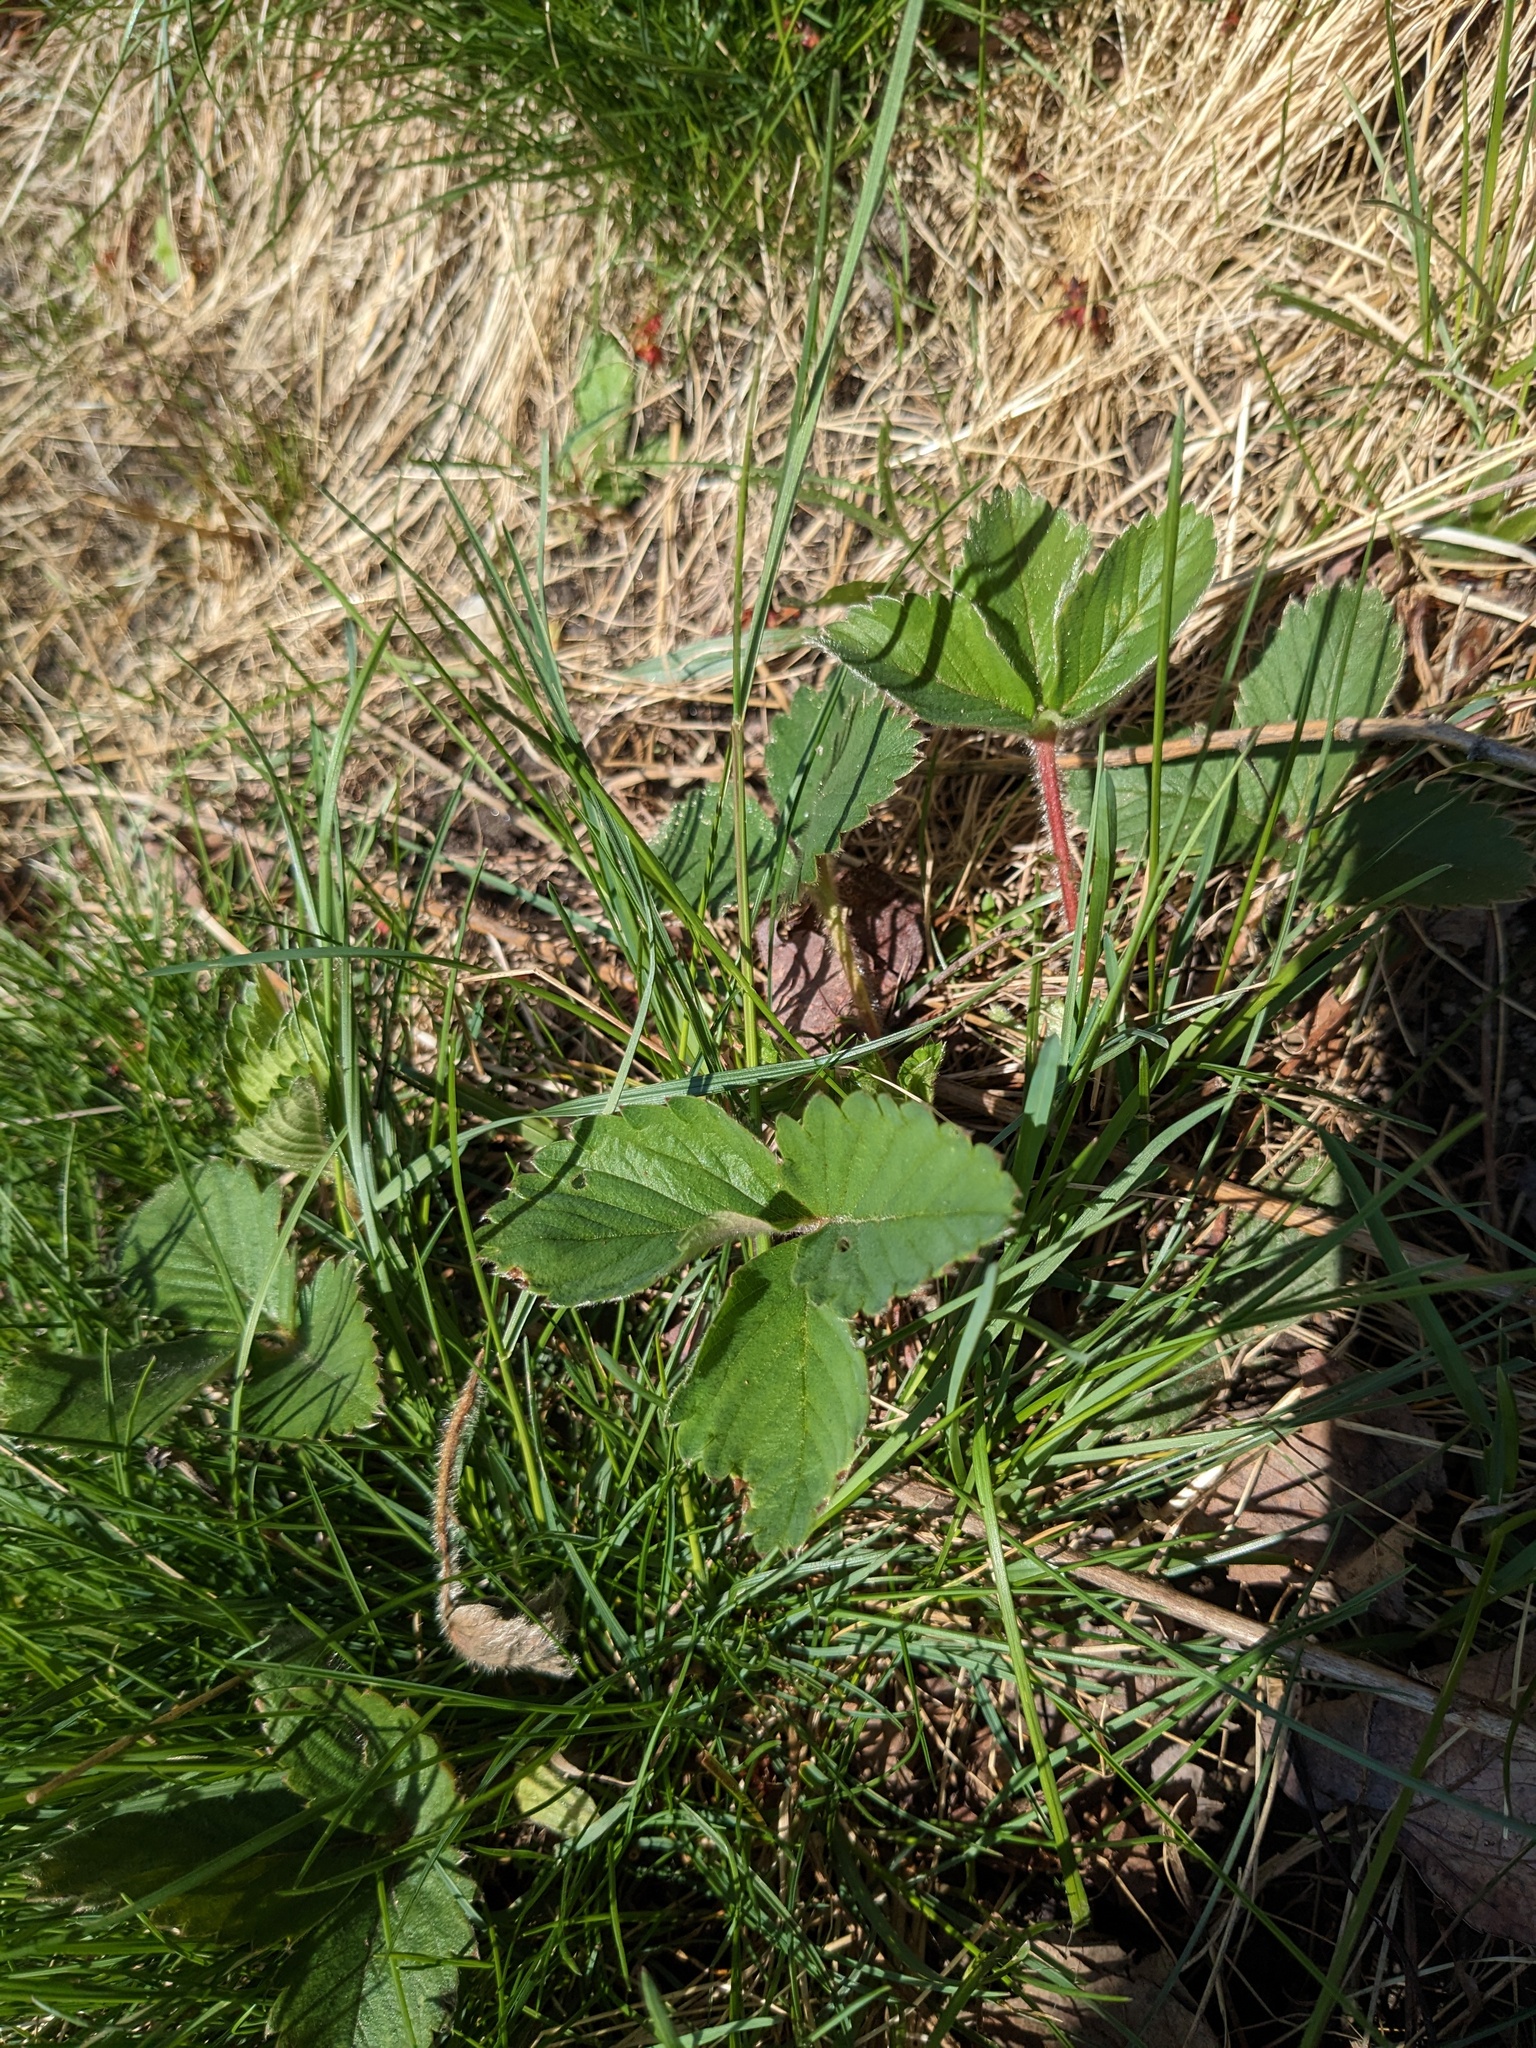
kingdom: Plantae
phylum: Tracheophyta
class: Magnoliopsida
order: Rosales
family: Rosaceae
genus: Fragaria
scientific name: Fragaria virginiana
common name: Thickleaved wild strawberry
